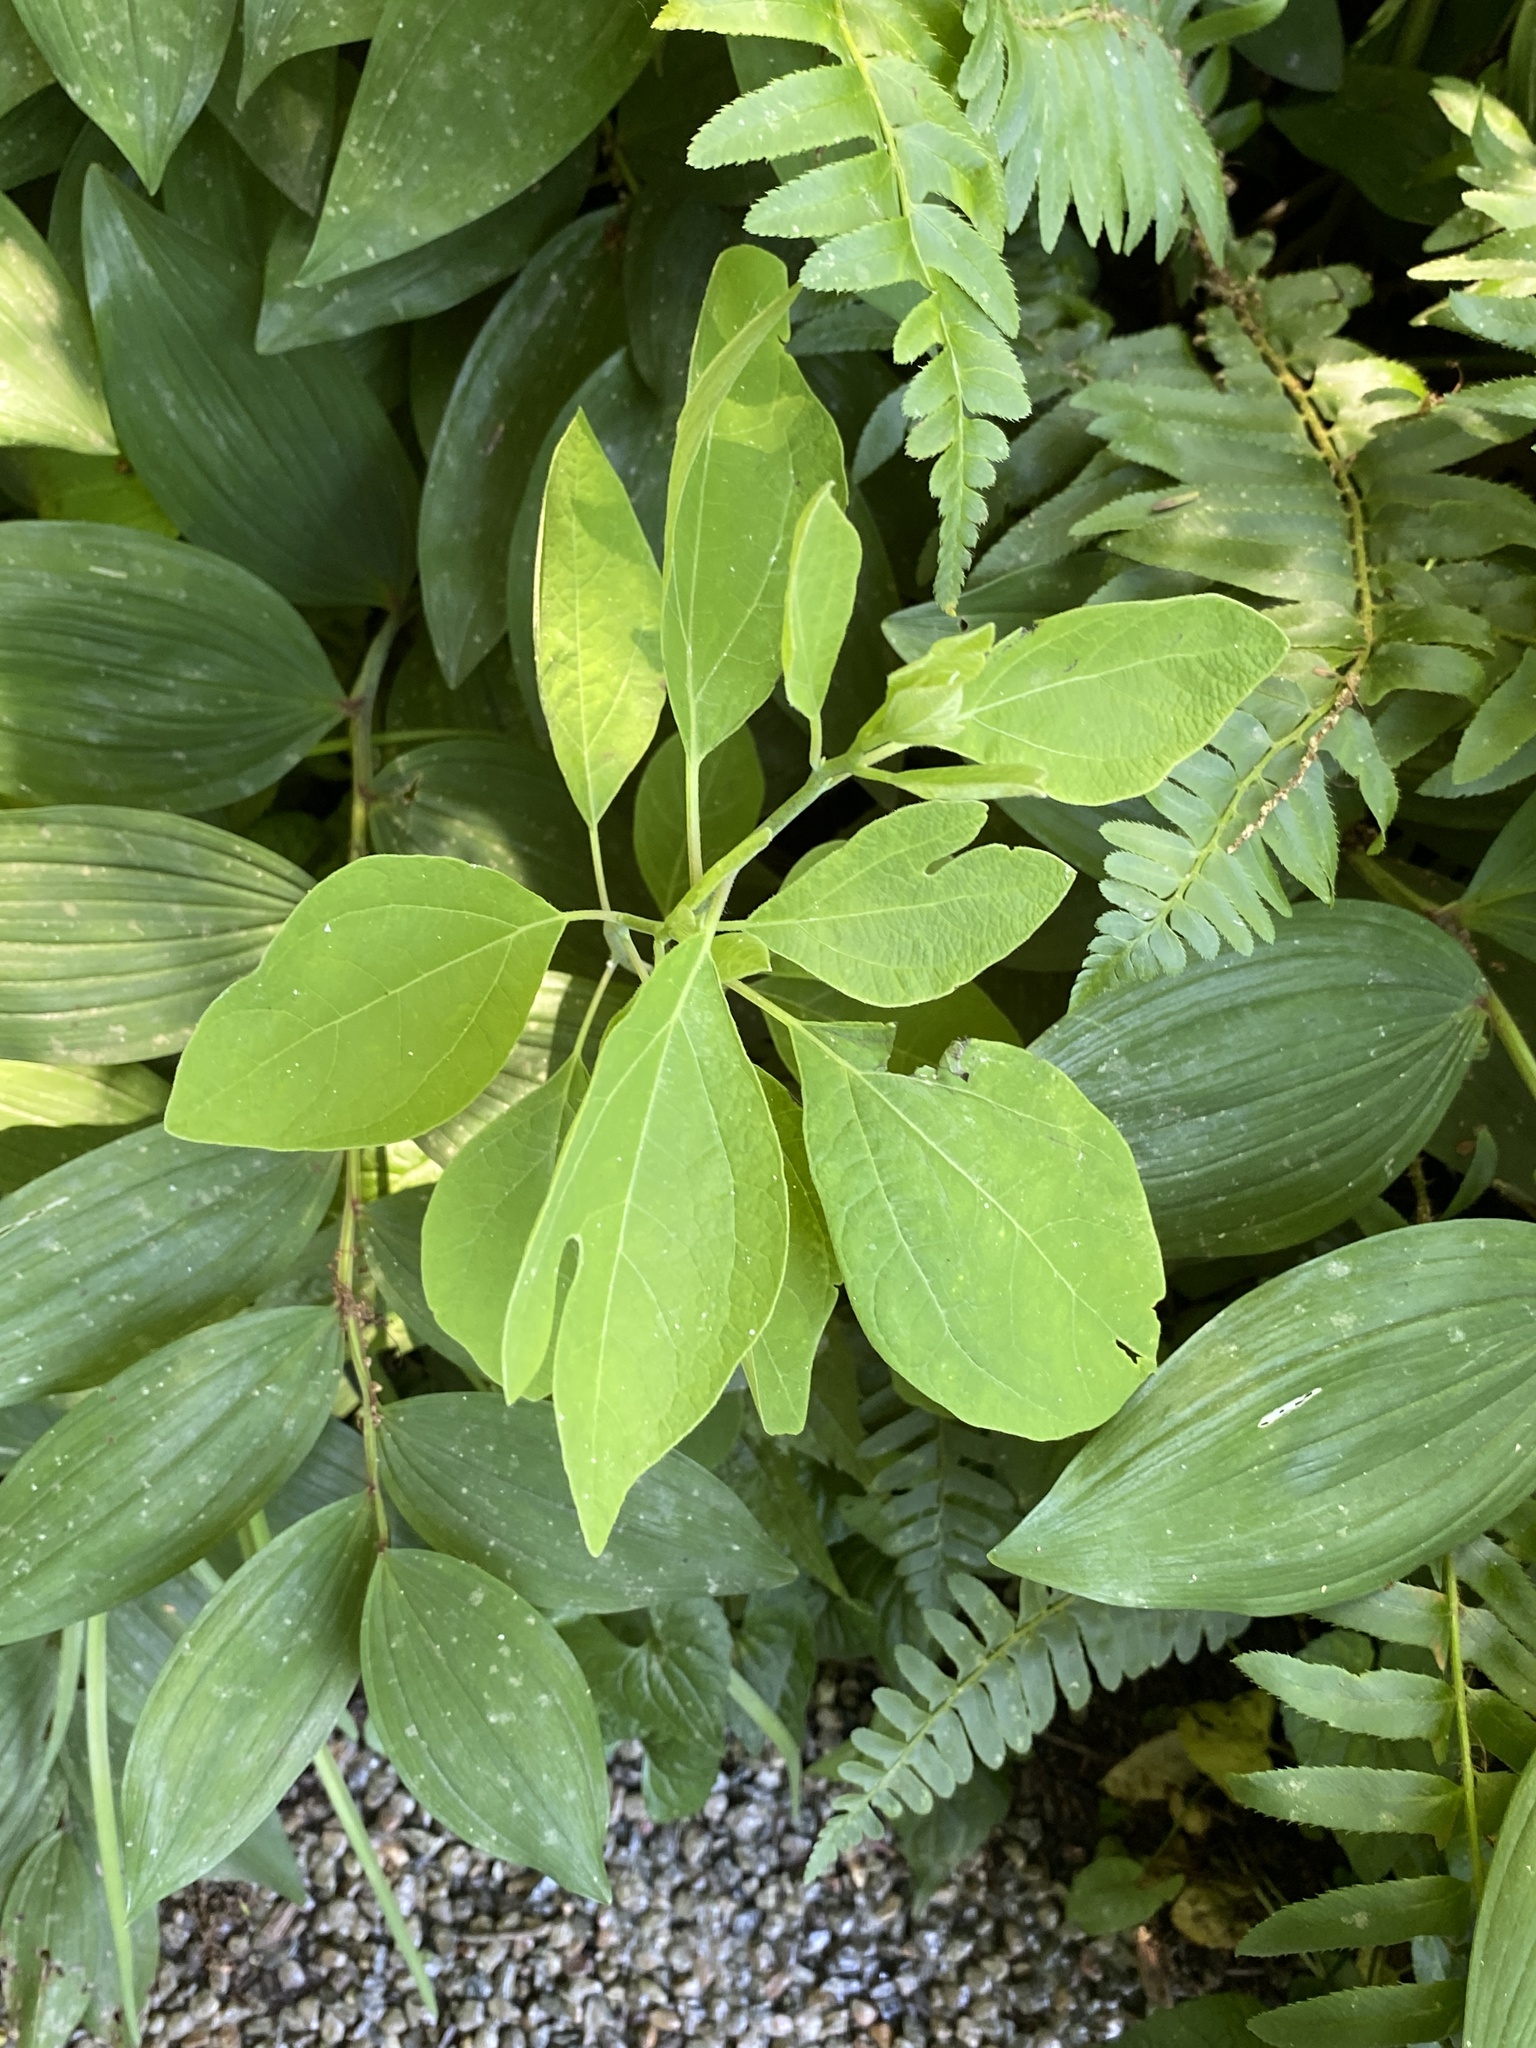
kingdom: Plantae
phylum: Tracheophyta
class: Magnoliopsida
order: Laurales
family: Lauraceae
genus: Sassafras
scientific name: Sassafras albidum
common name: Sassafras
